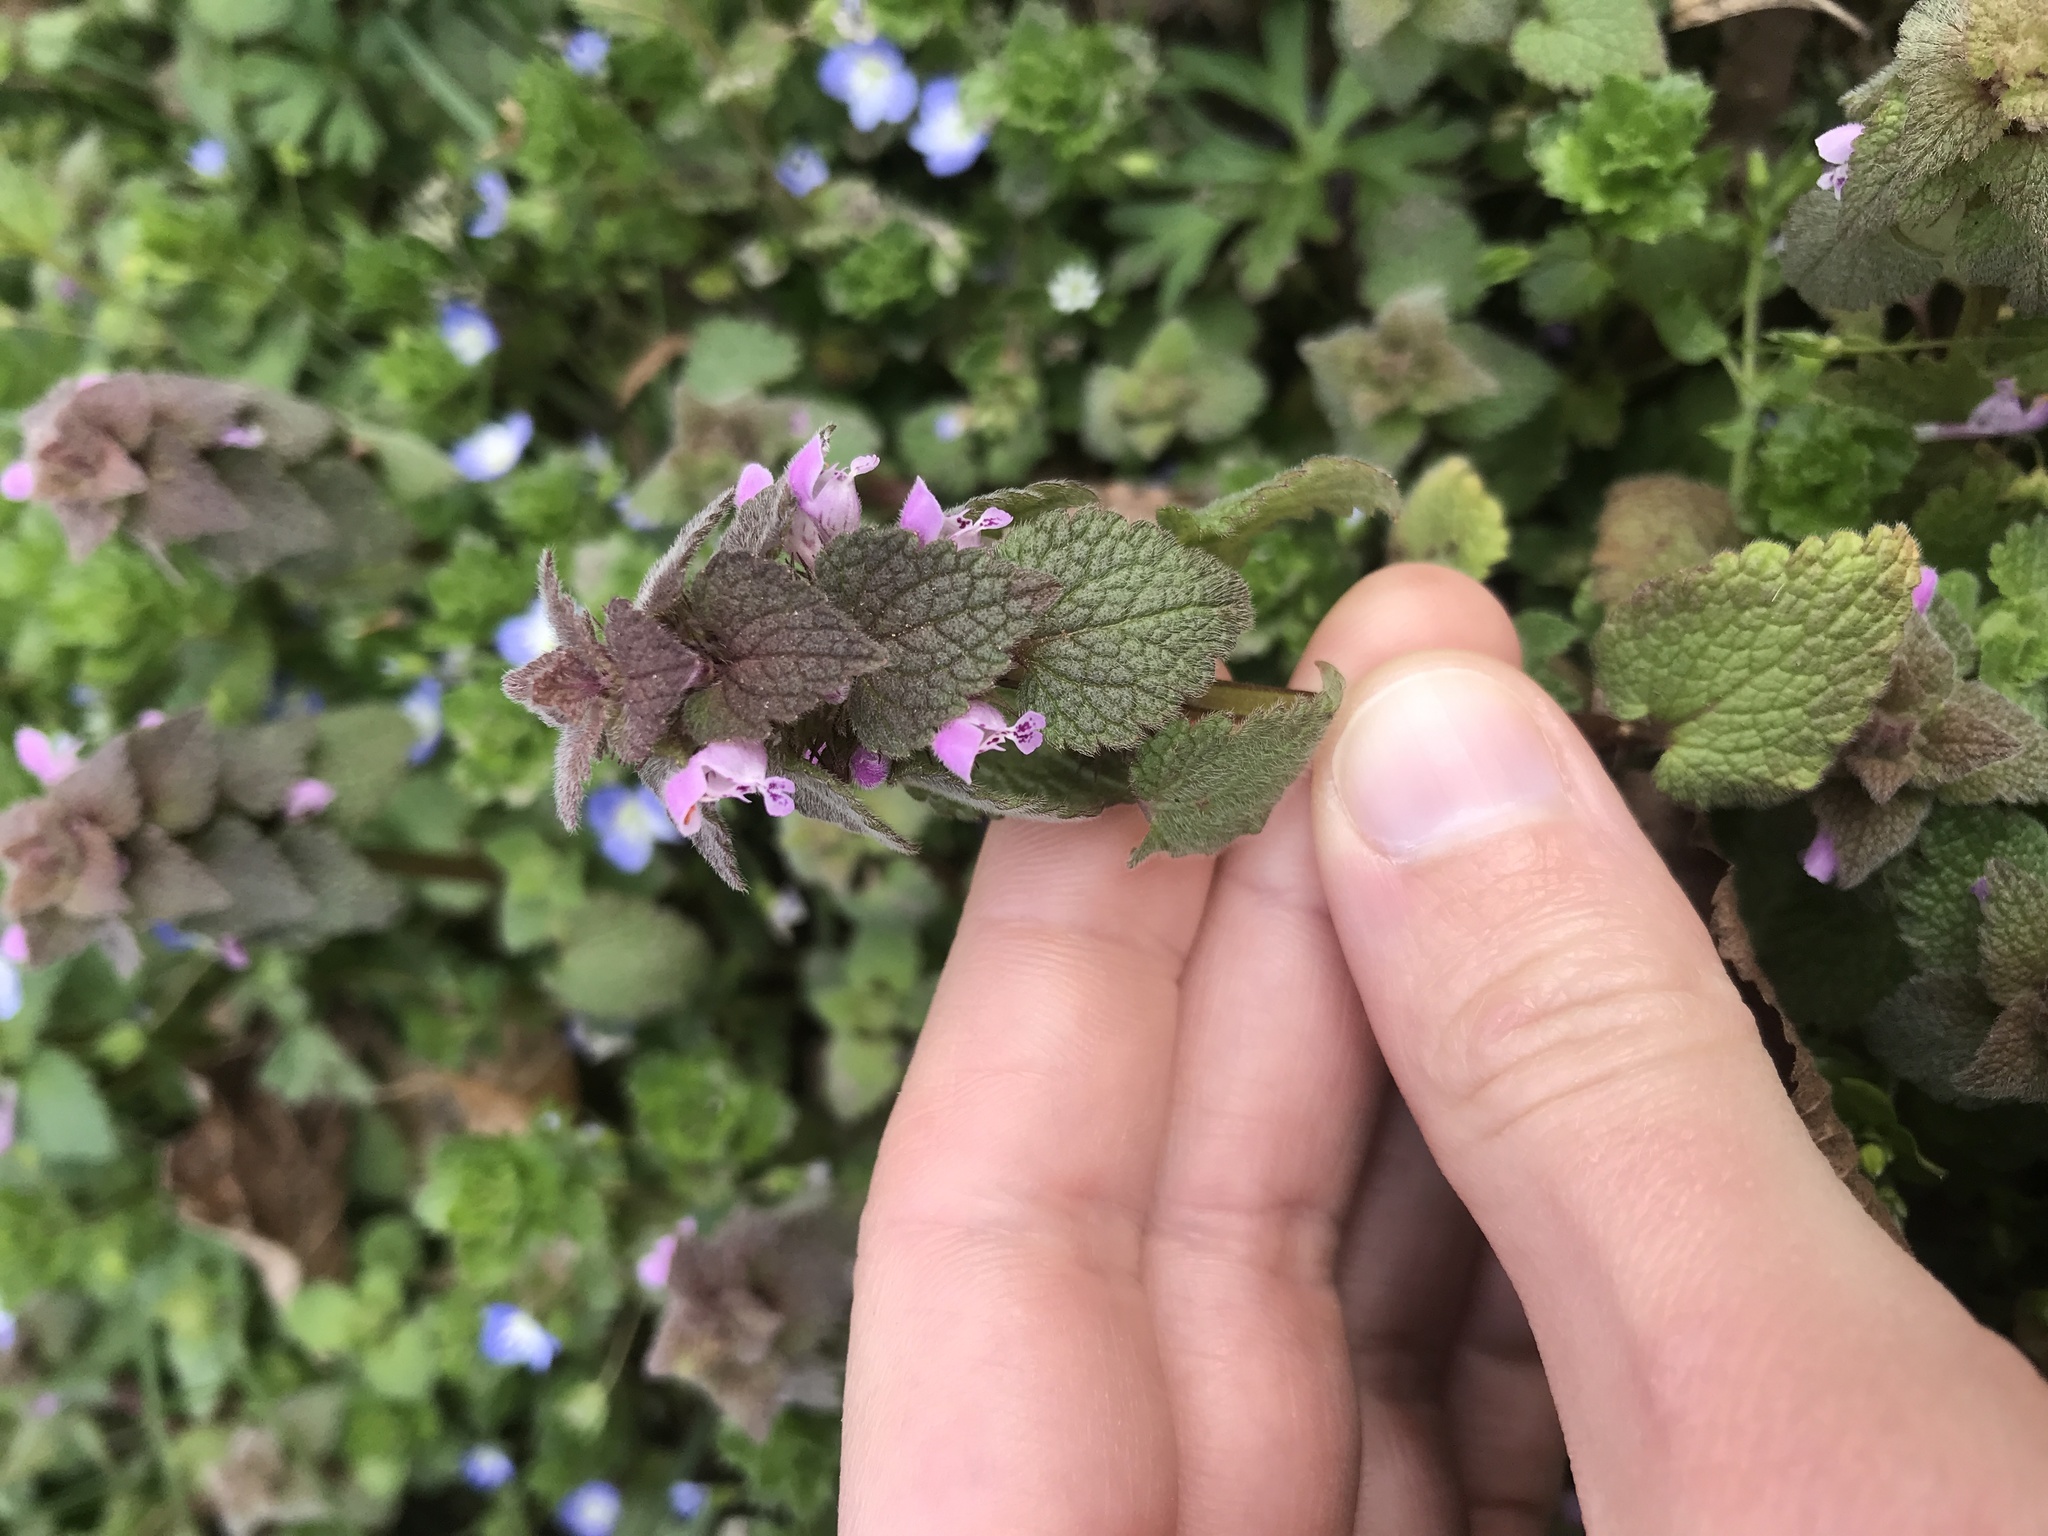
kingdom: Plantae
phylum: Tracheophyta
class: Magnoliopsida
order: Lamiales
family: Lamiaceae
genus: Lamium
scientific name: Lamium purpureum
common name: Red dead-nettle
